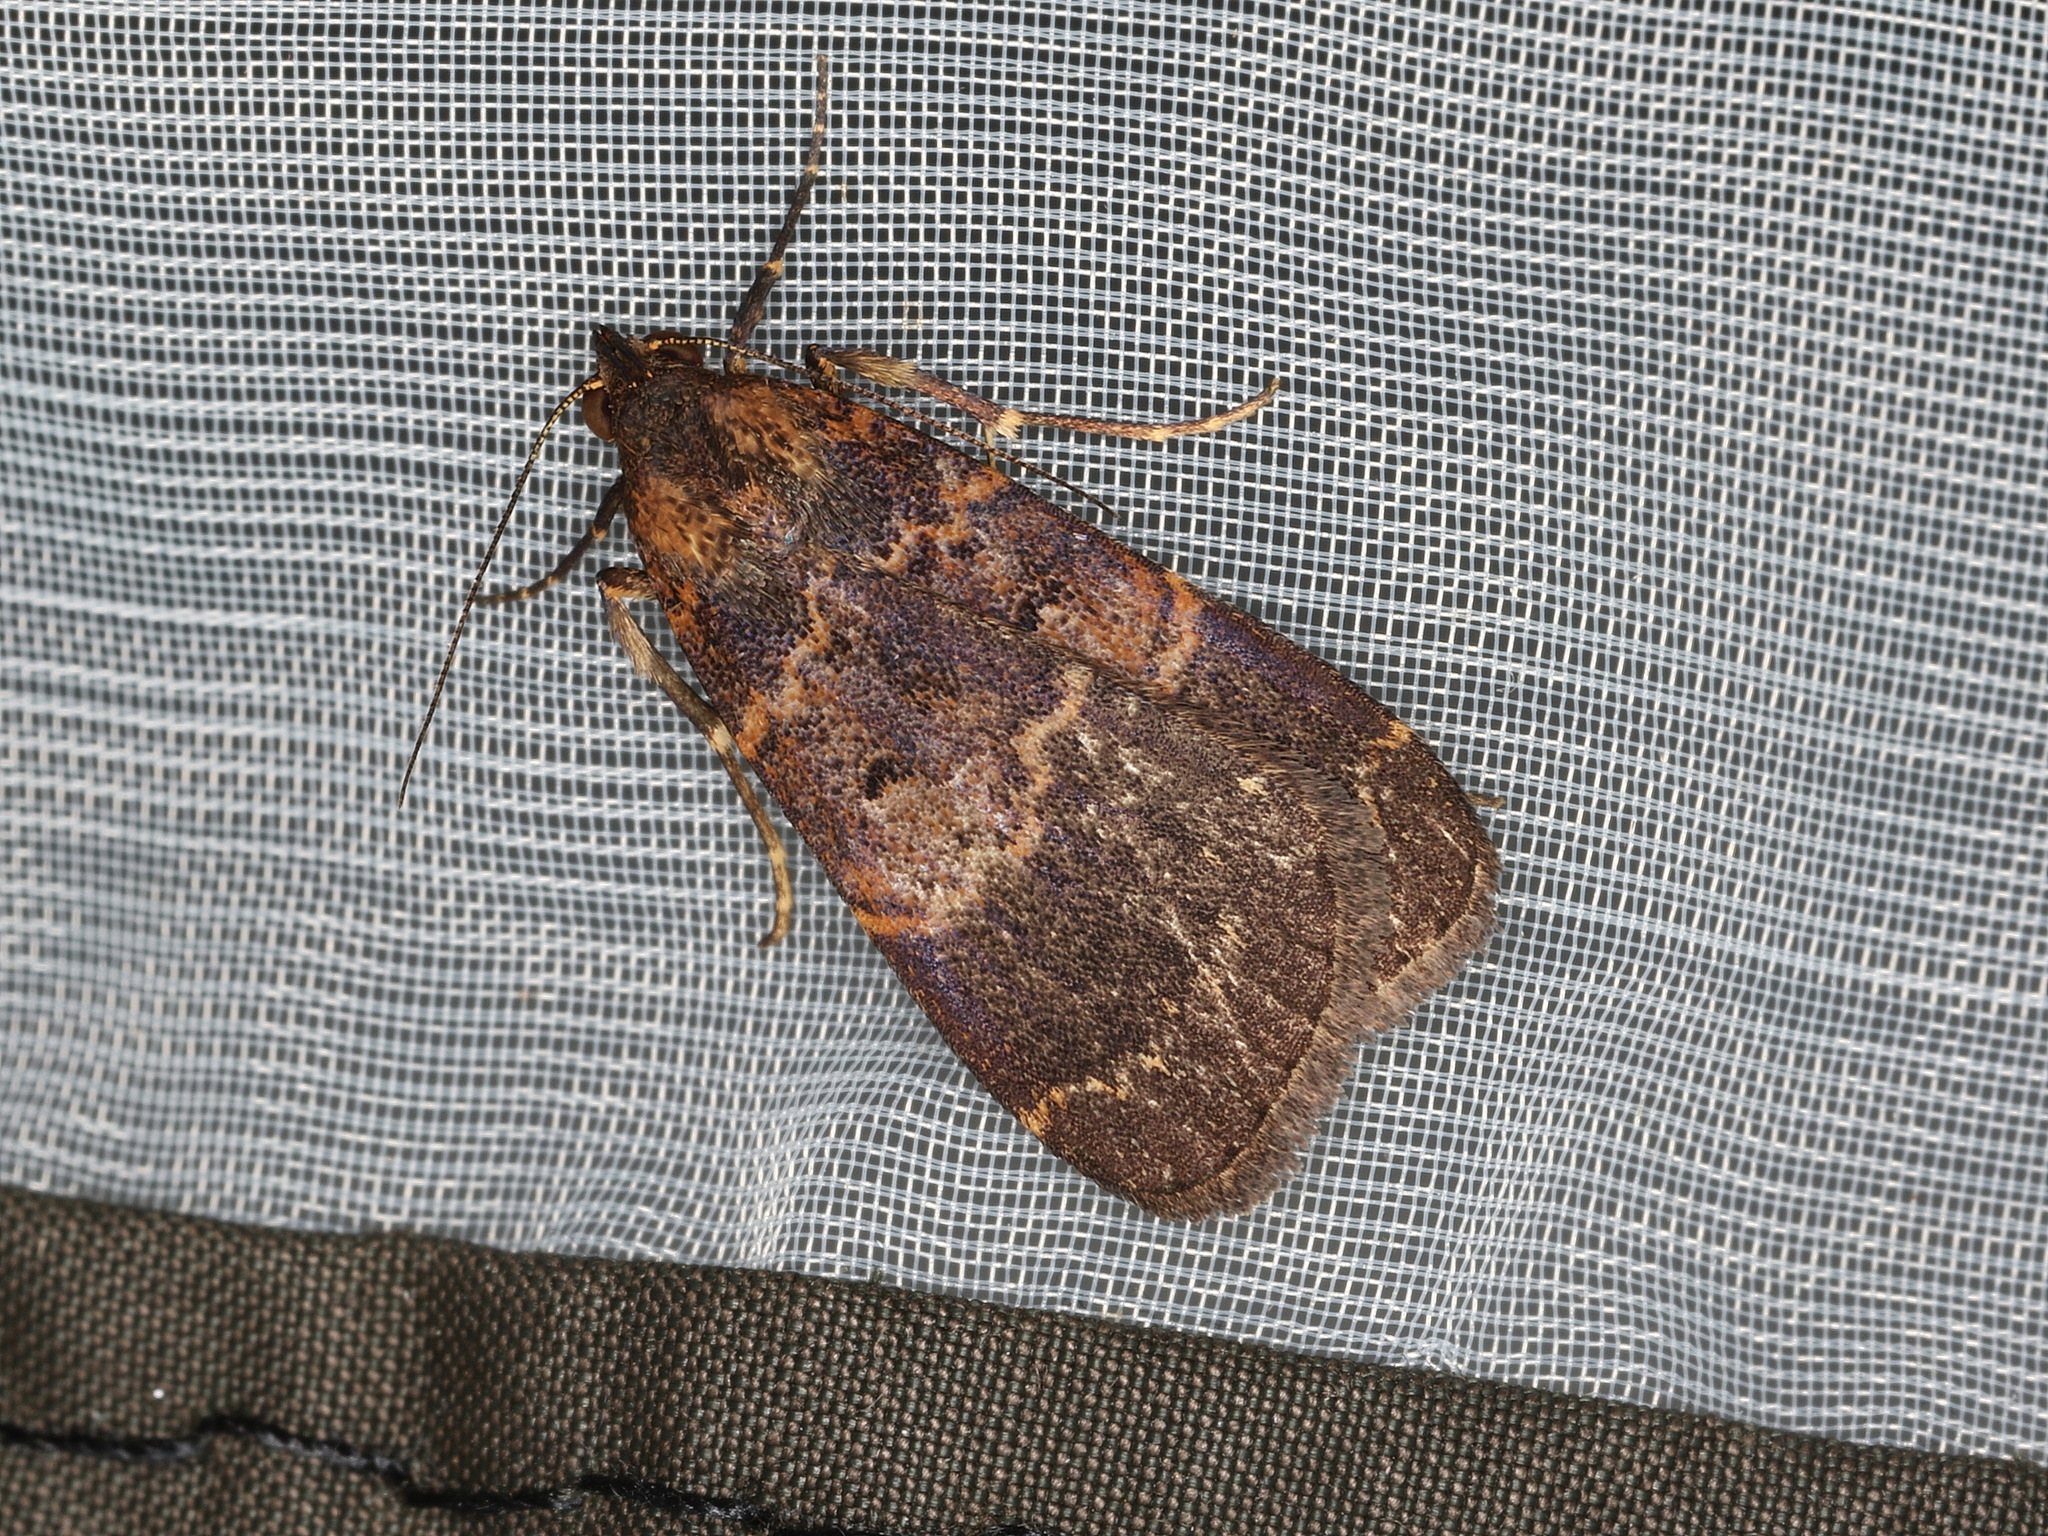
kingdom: Animalia
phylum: Arthropoda
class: Insecta
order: Lepidoptera
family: Erebidae
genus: Hydrillodes
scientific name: Hydrillodes funestalis
